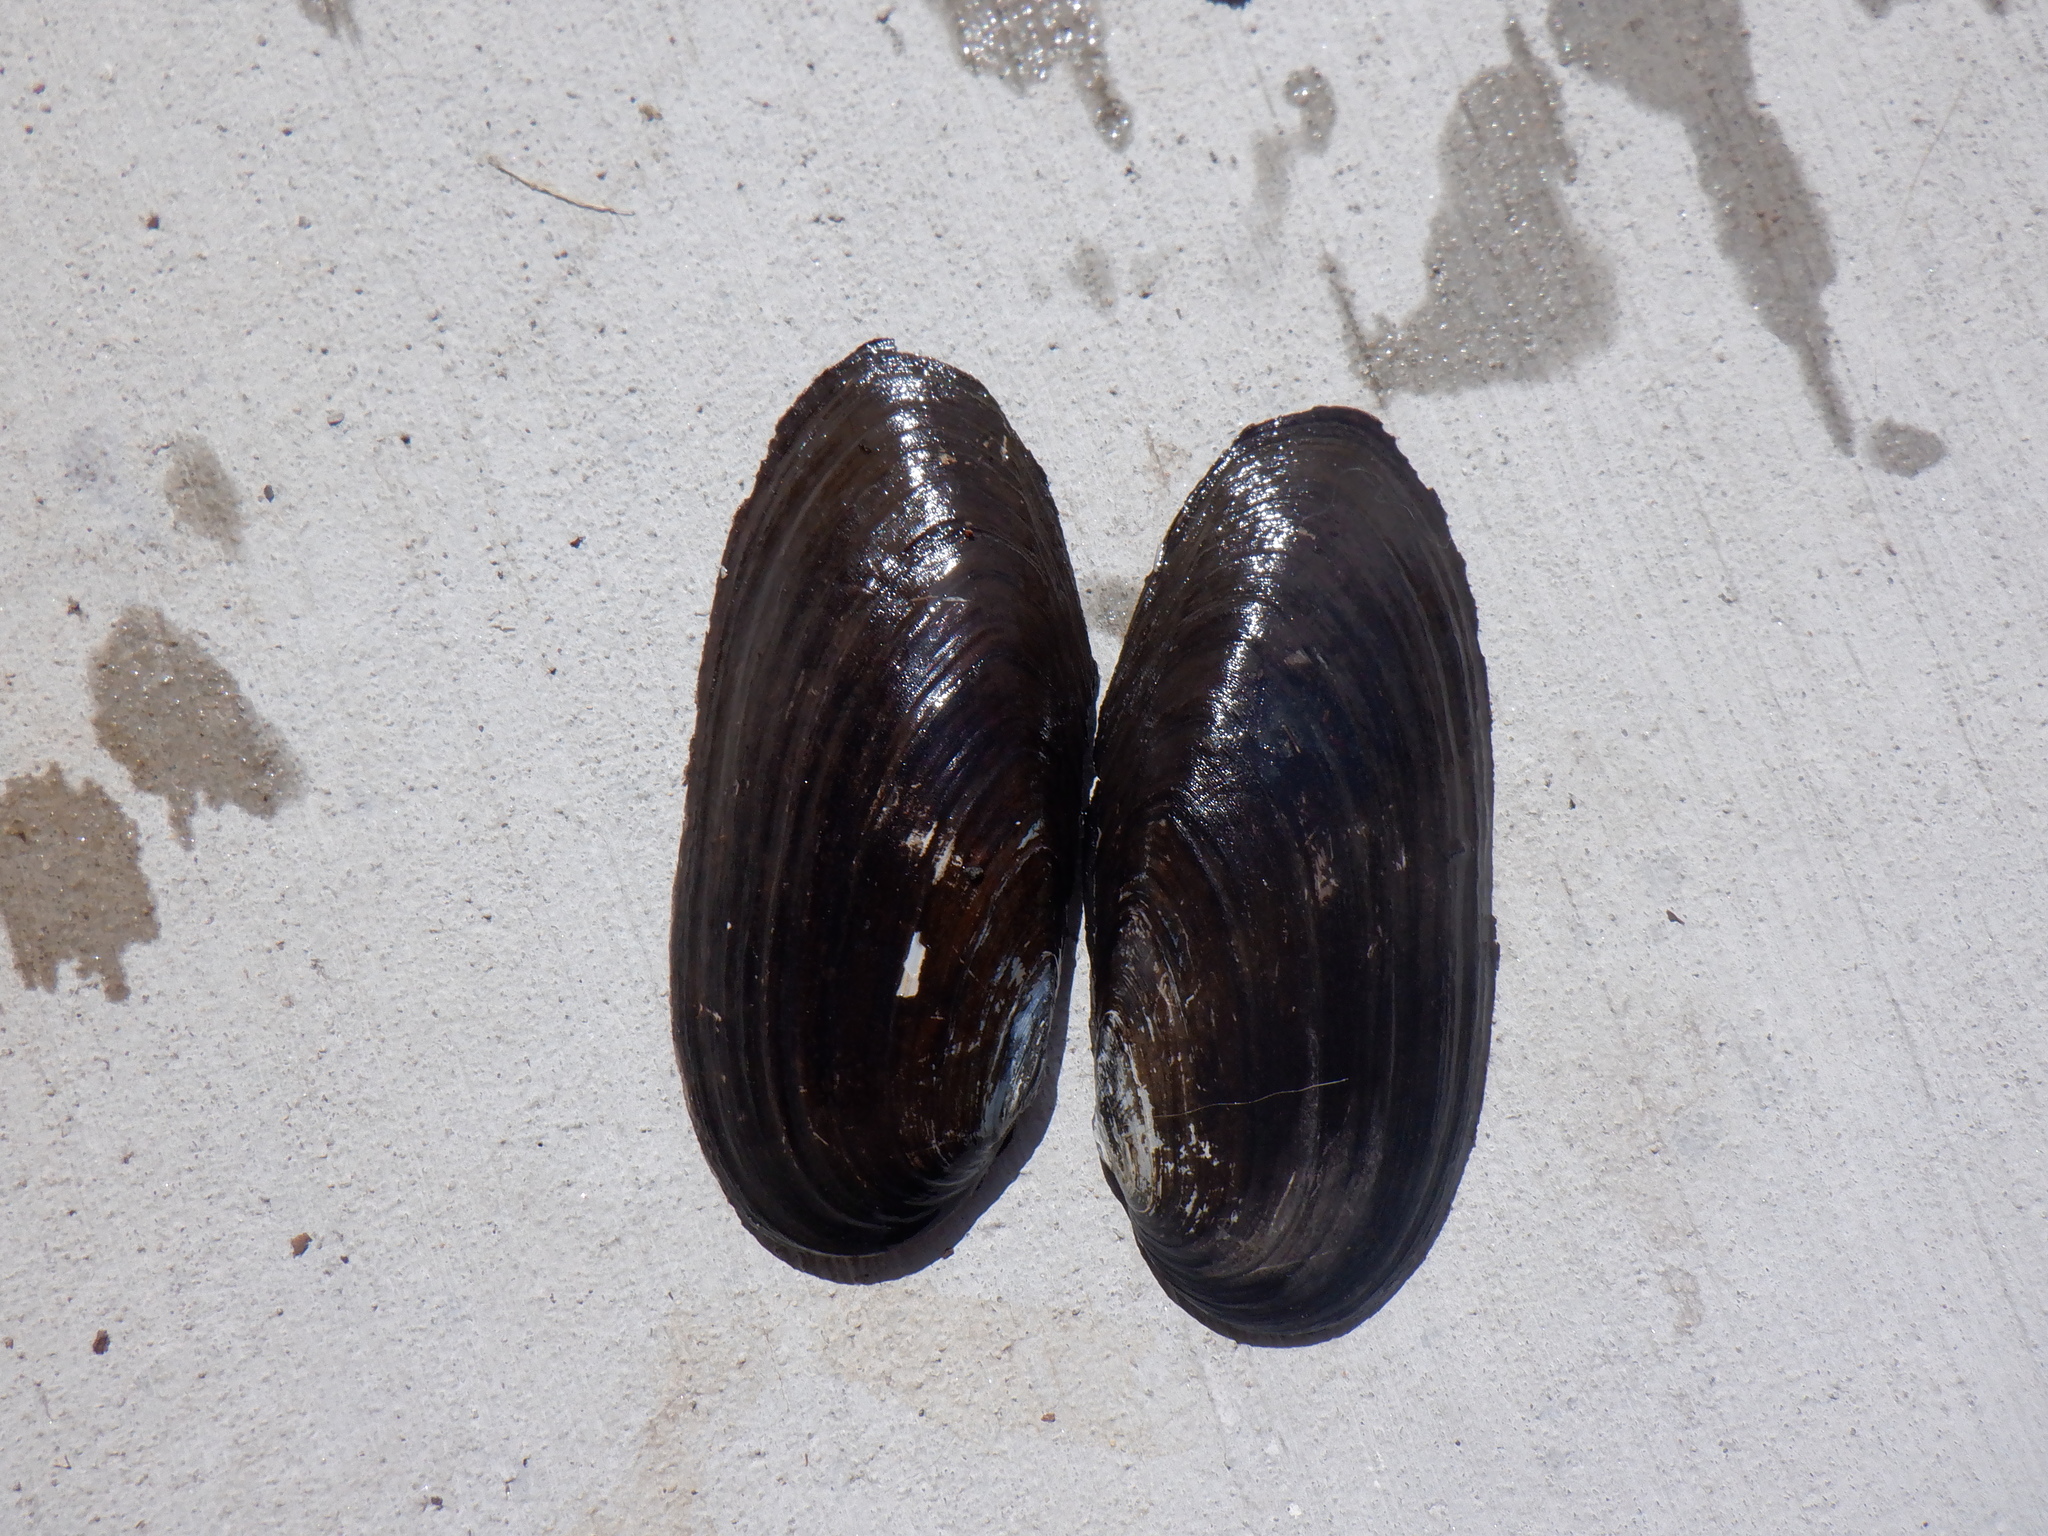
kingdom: Animalia
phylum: Mollusca
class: Bivalvia
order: Unionida
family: Unionidae
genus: Eurynia
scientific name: Eurynia dilatata
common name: Spike
